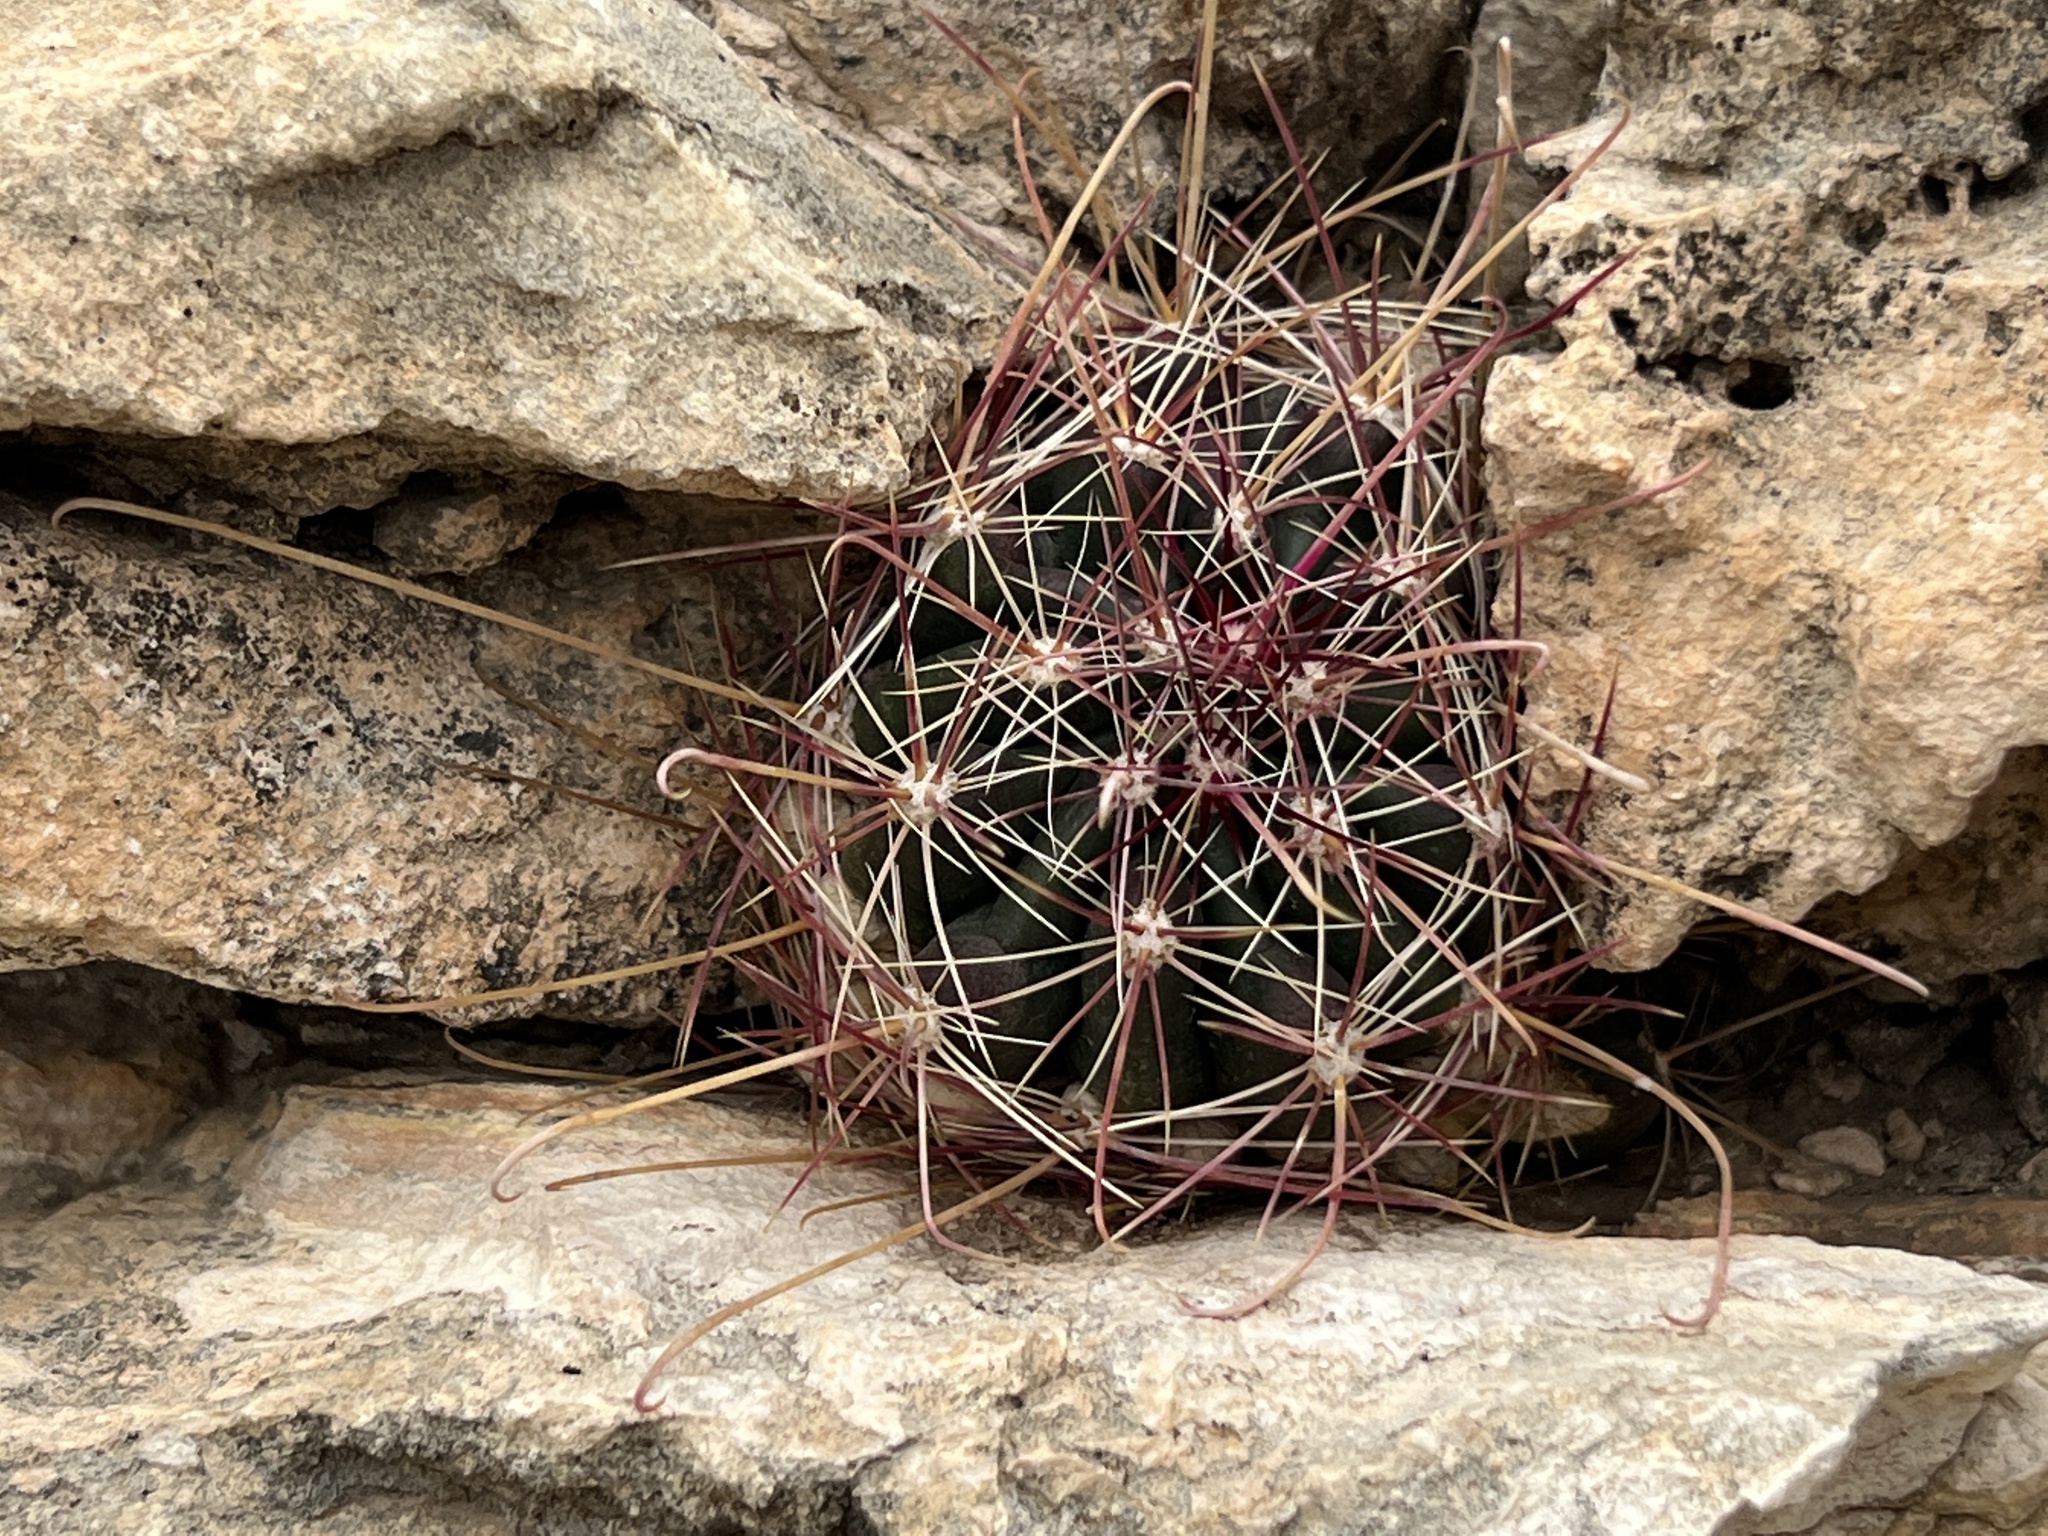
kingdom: Plantae
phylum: Tracheophyta
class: Magnoliopsida
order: Caryophyllales
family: Cactaceae
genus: Bisnaga
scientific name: Bisnaga hamatacantha
